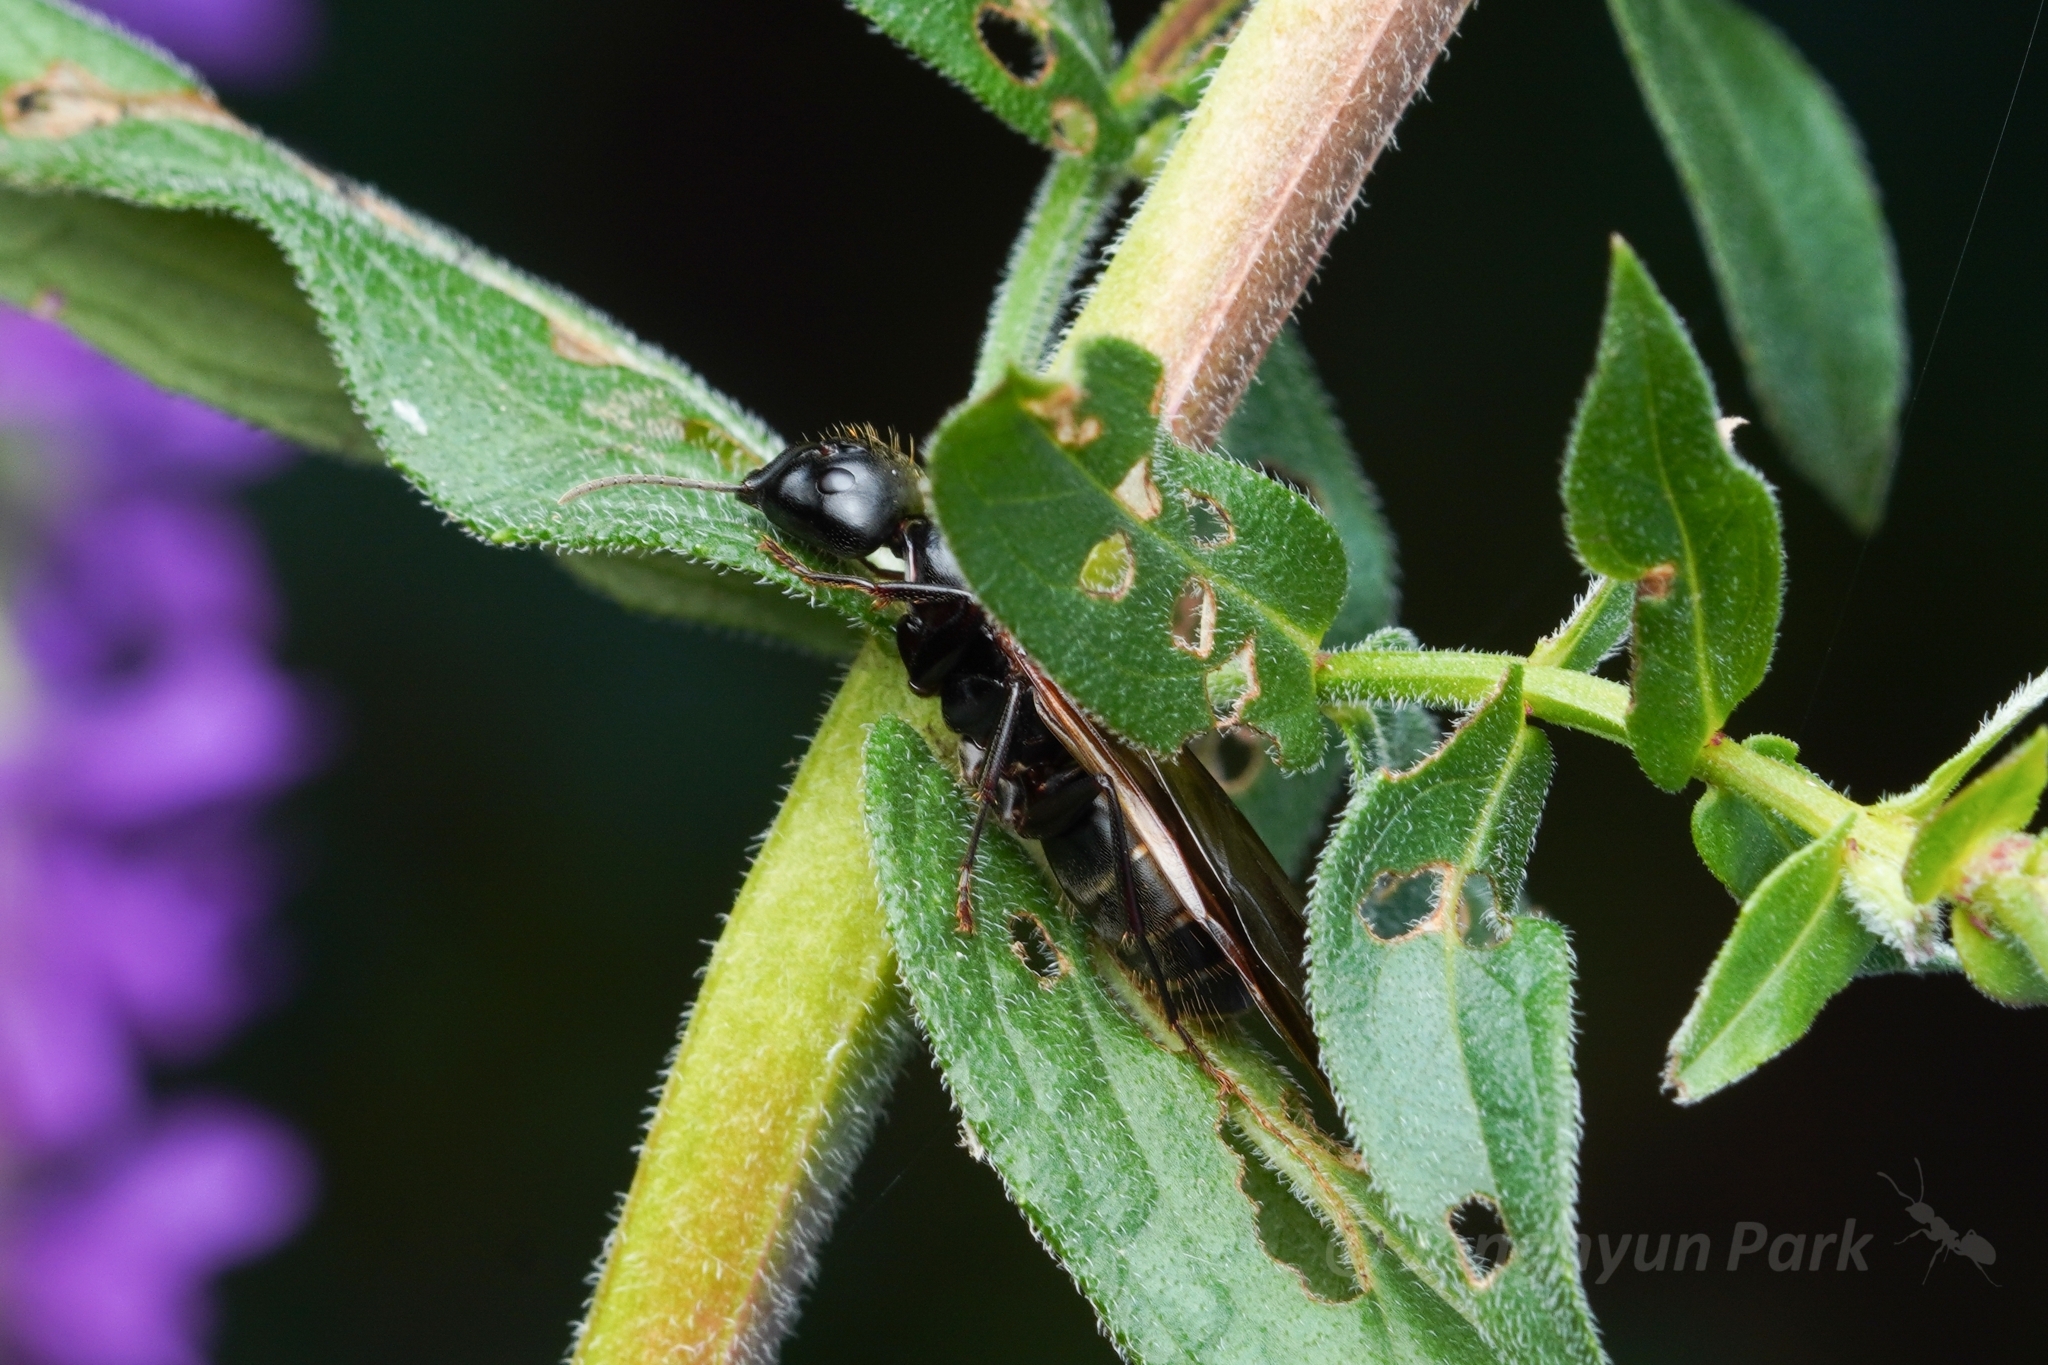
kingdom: Animalia
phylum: Arthropoda
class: Insecta
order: Hymenoptera
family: Formicidae
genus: Camponotus
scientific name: Camponotus pennsylvanicus
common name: Black carpenter ant
